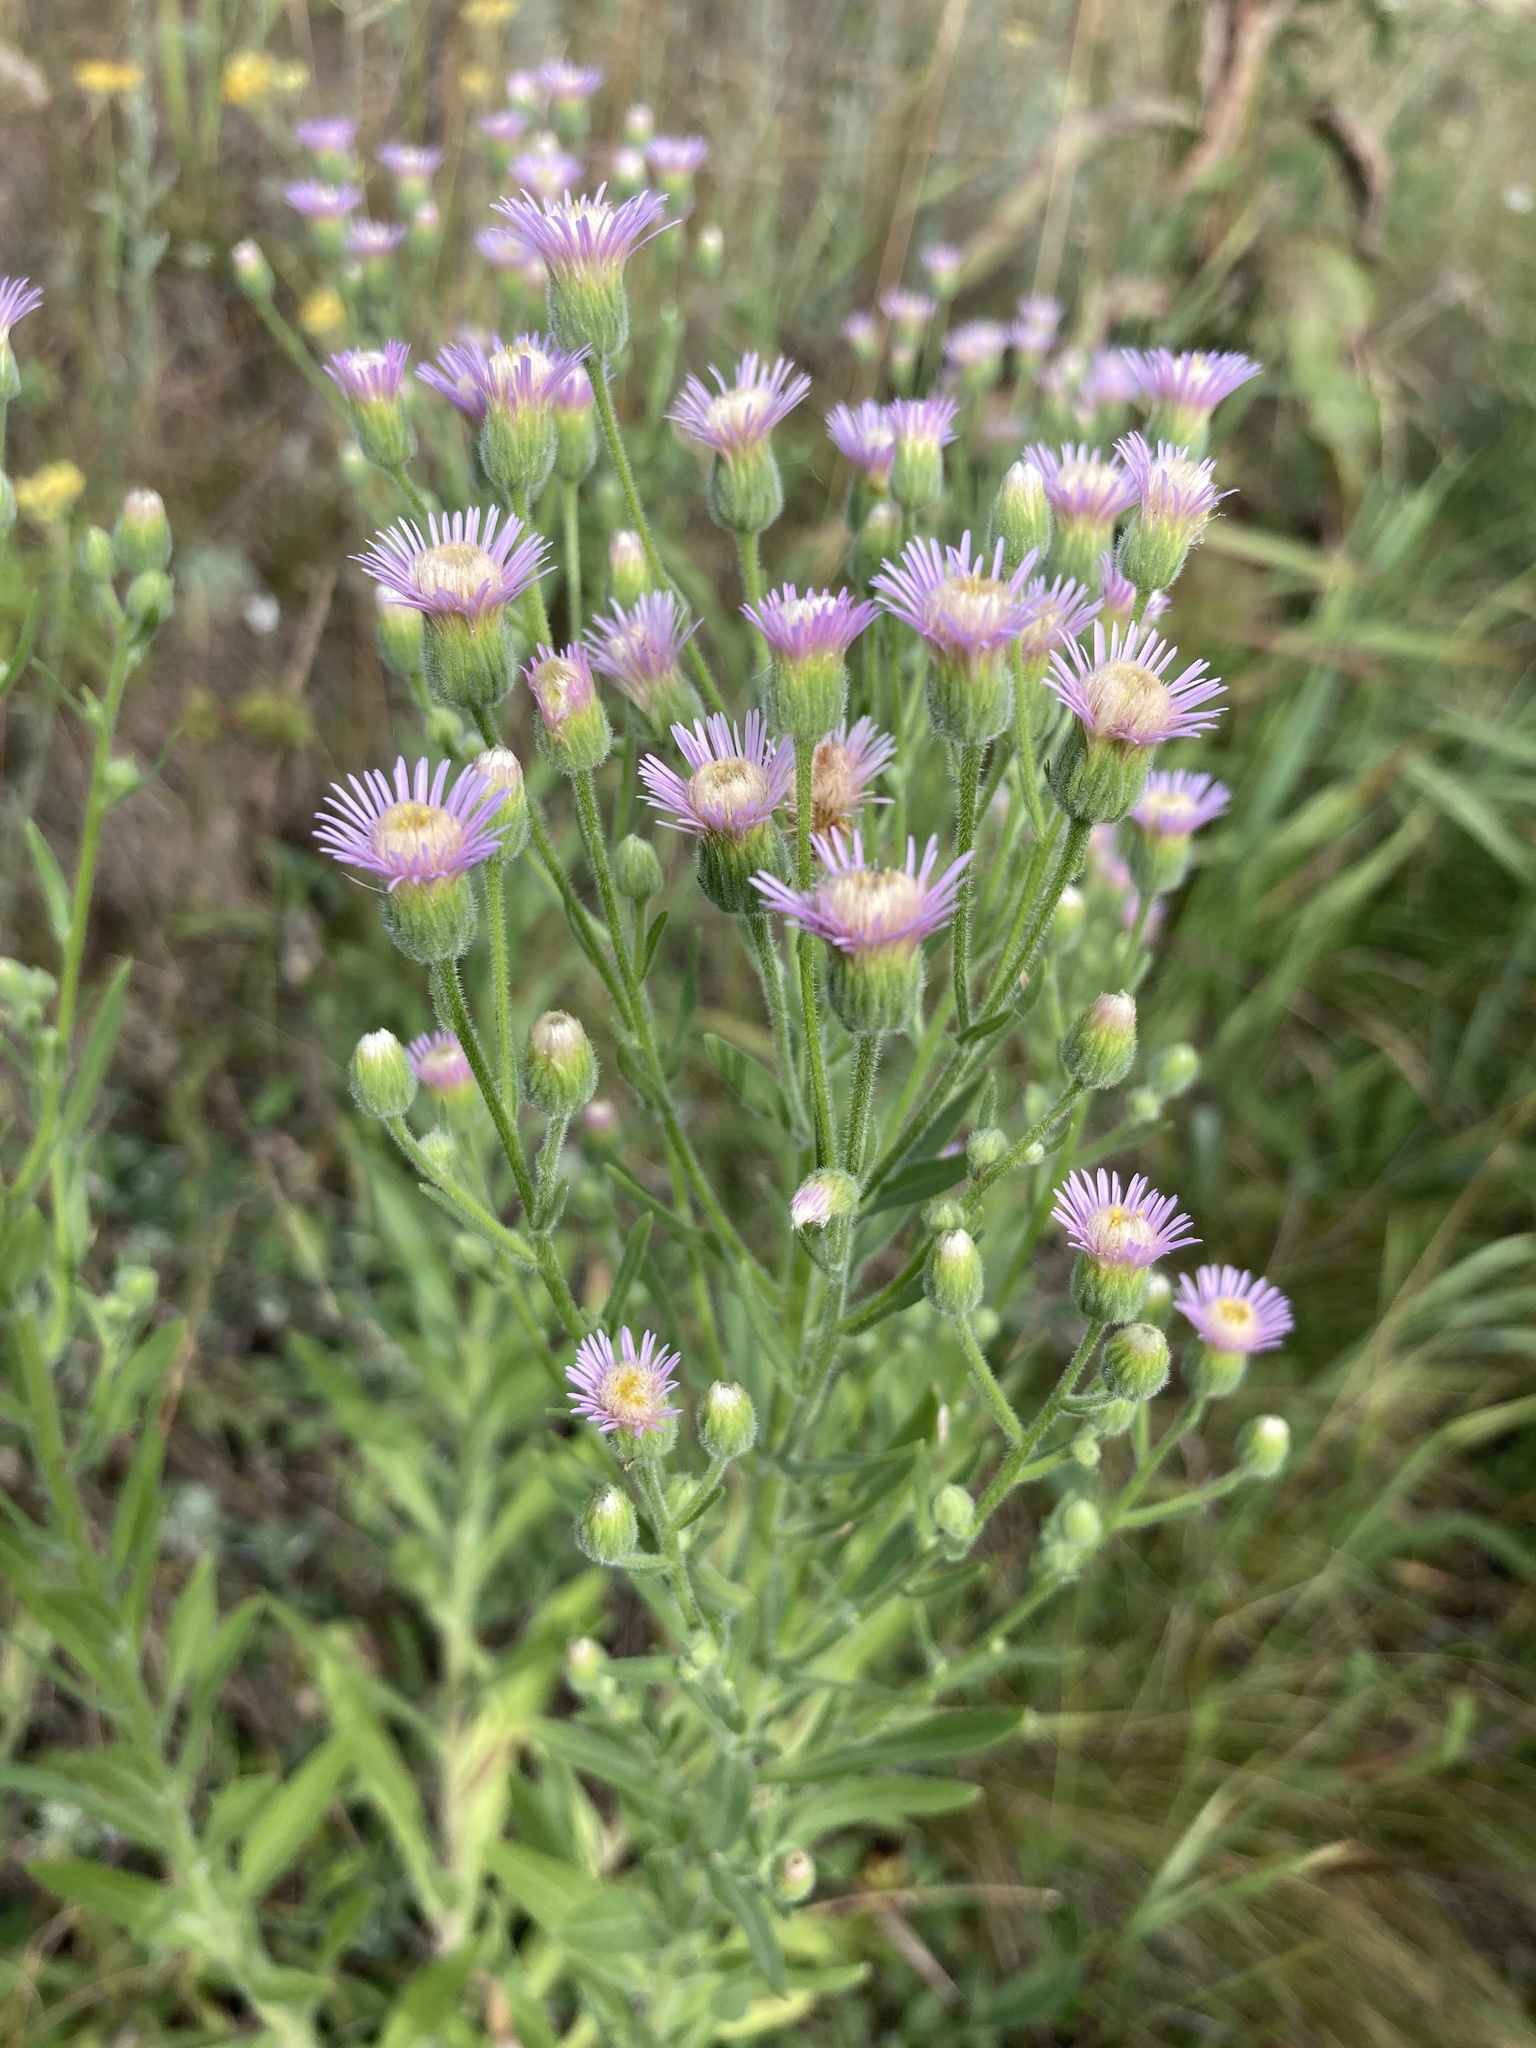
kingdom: Plantae
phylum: Tracheophyta
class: Magnoliopsida
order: Asterales
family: Asteraceae
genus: Erigeron
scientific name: Erigeron acris
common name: Blue fleabane
